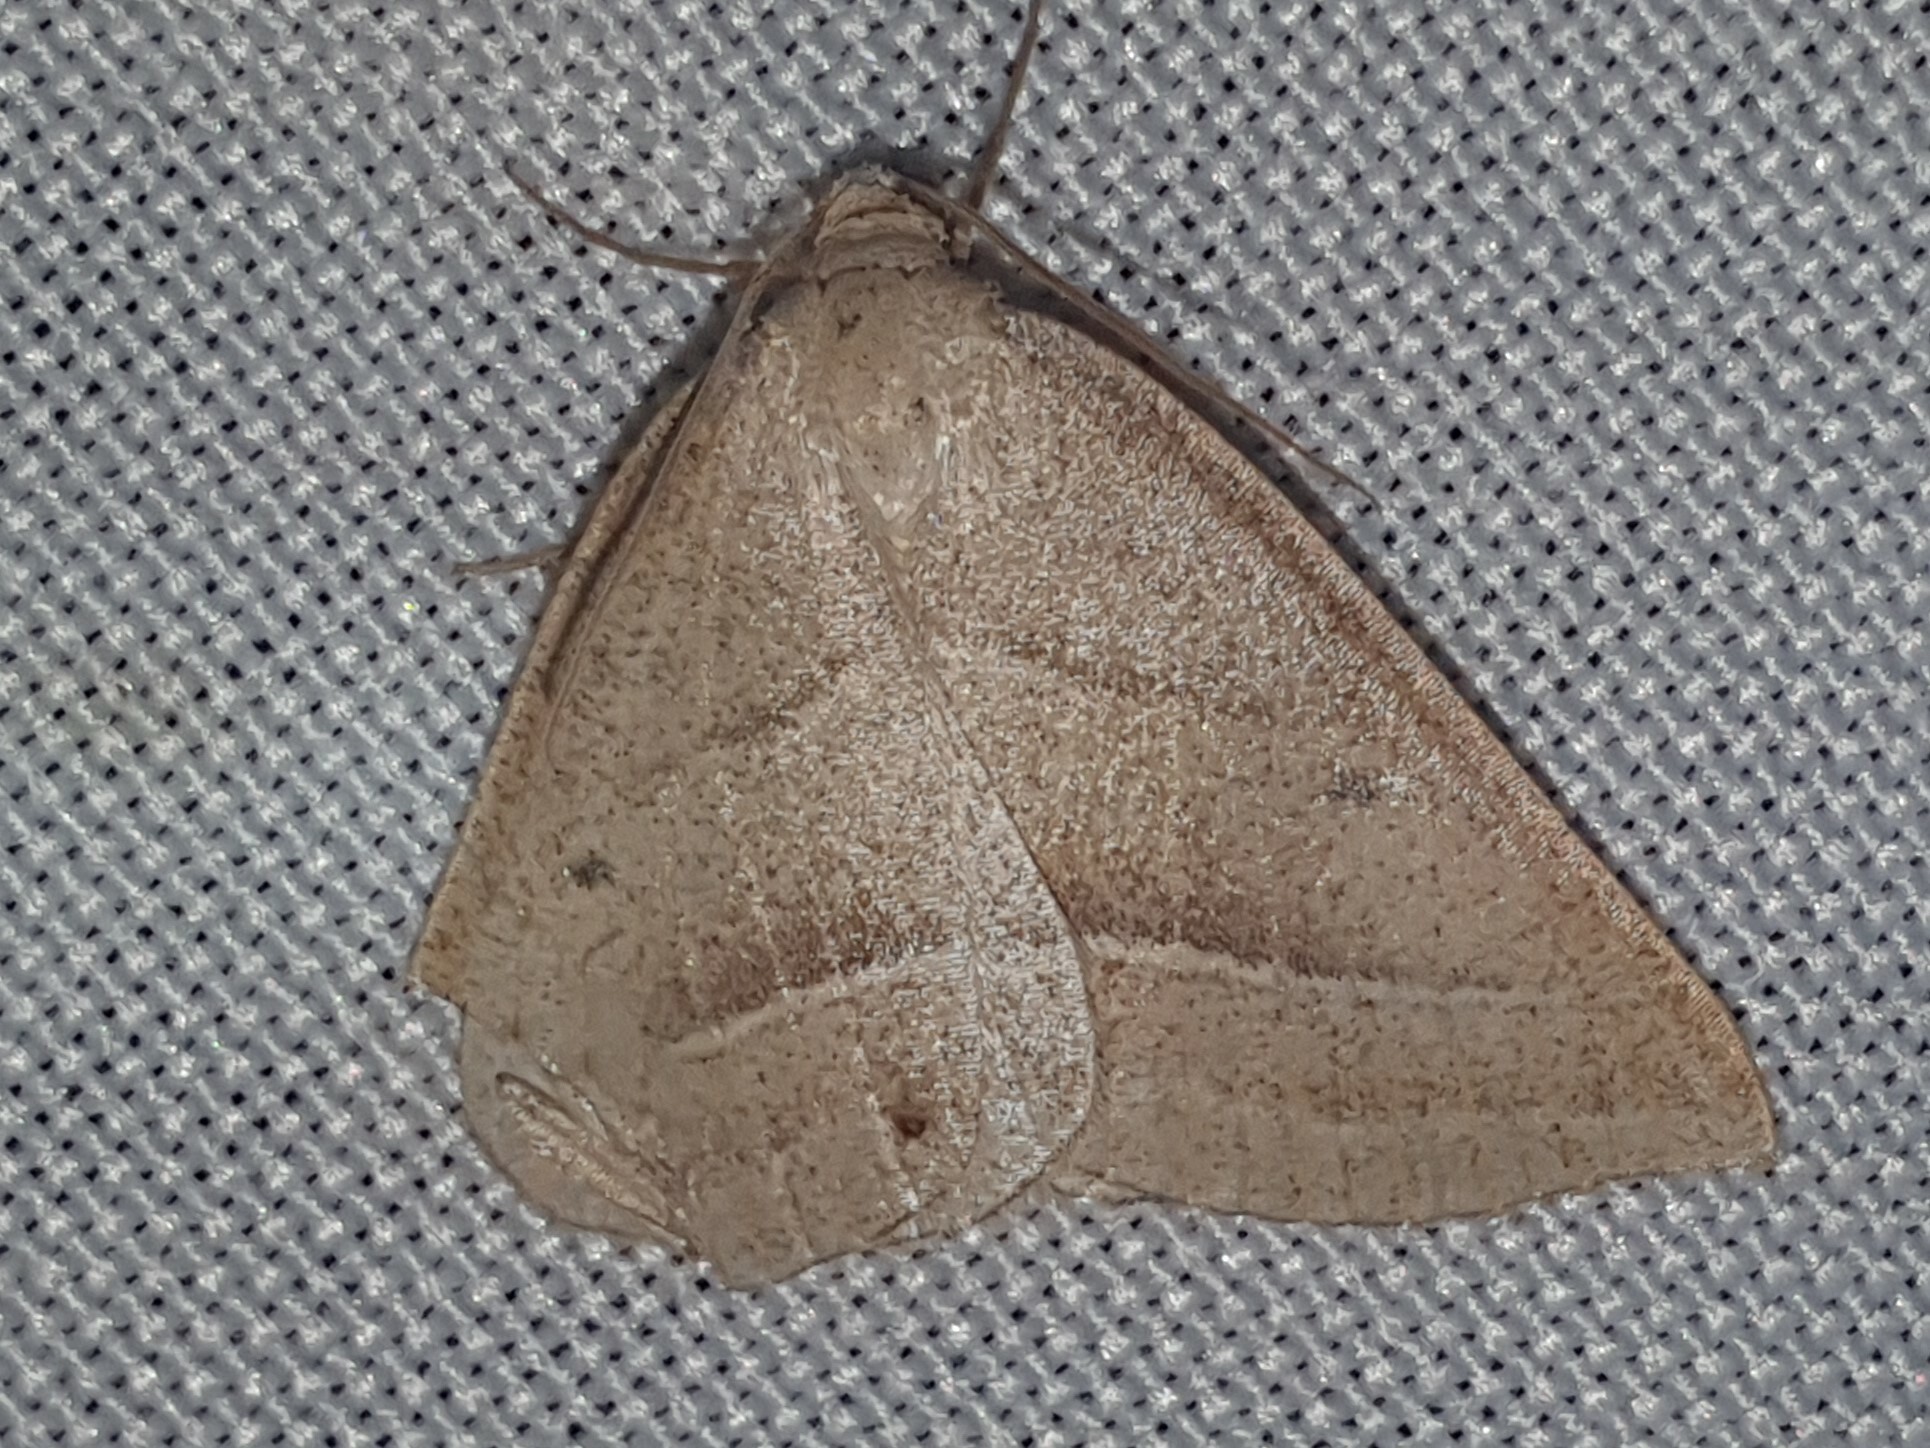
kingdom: Animalia
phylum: Arthropoda
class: Insecta
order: Lepidoptera
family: Pterophoridae
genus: Pterophorus
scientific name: Pterophorus Petrophora chlorosata
